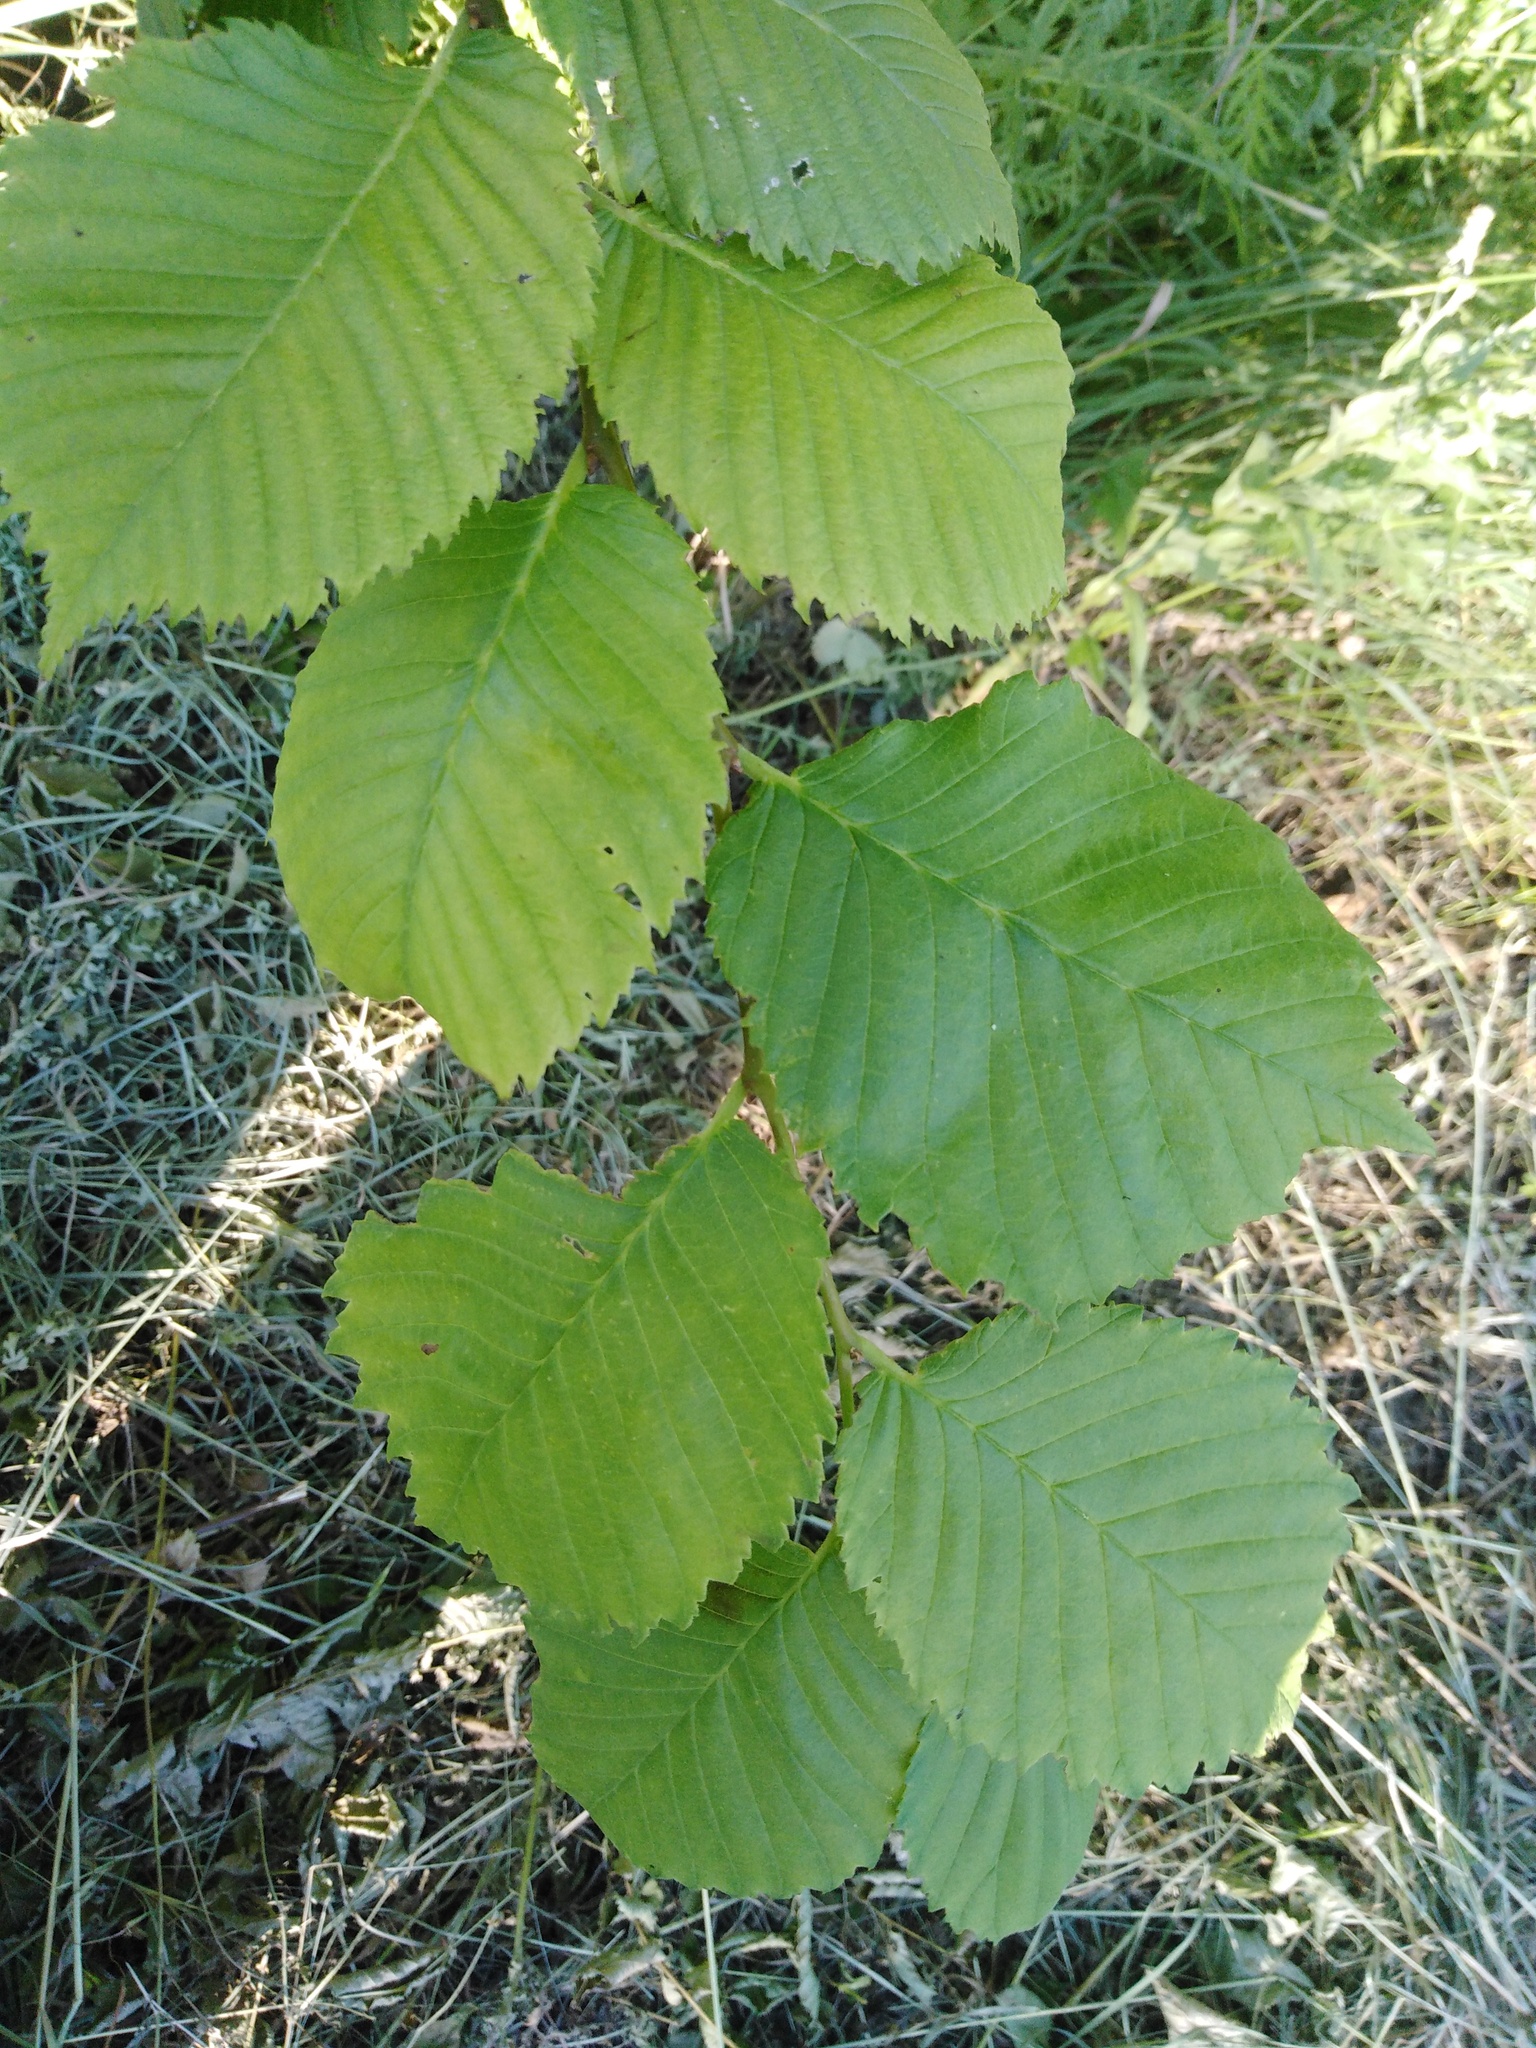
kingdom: Plantae
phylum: Tracheophyta
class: Magnoliopsida
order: Rosales
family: Ulmaceae
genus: Ulmus
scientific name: Ulmus laevis
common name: European white-elm
